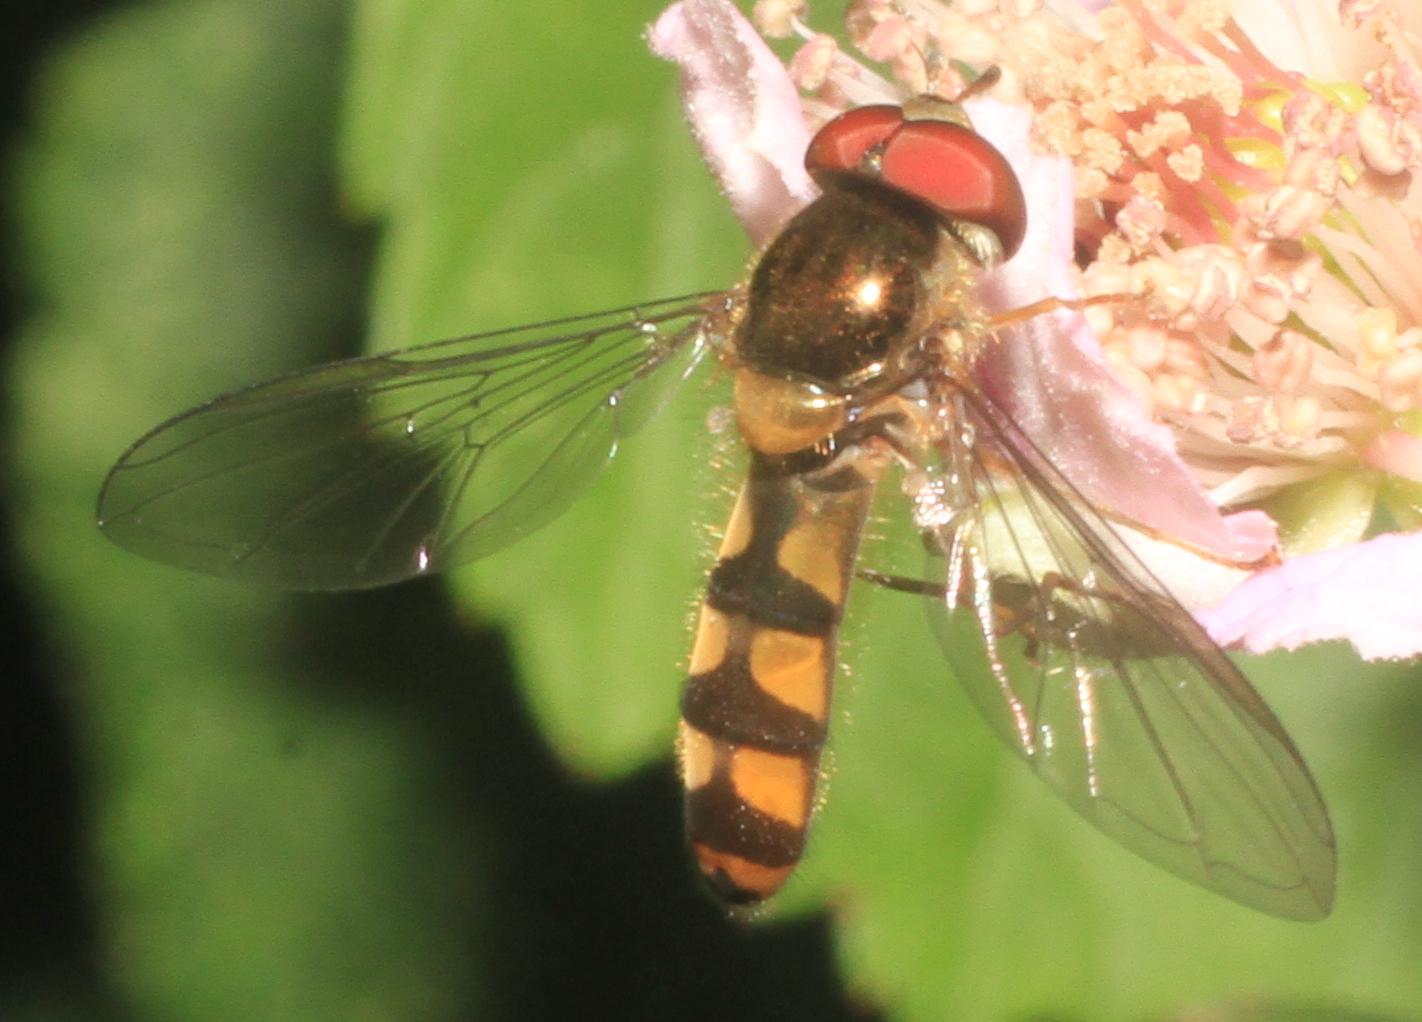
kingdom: Animalia
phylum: Arthropoda
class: Insecta
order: Diptera
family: Syrphidae
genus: Meliscaeva
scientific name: Meliscaeva auricollis
